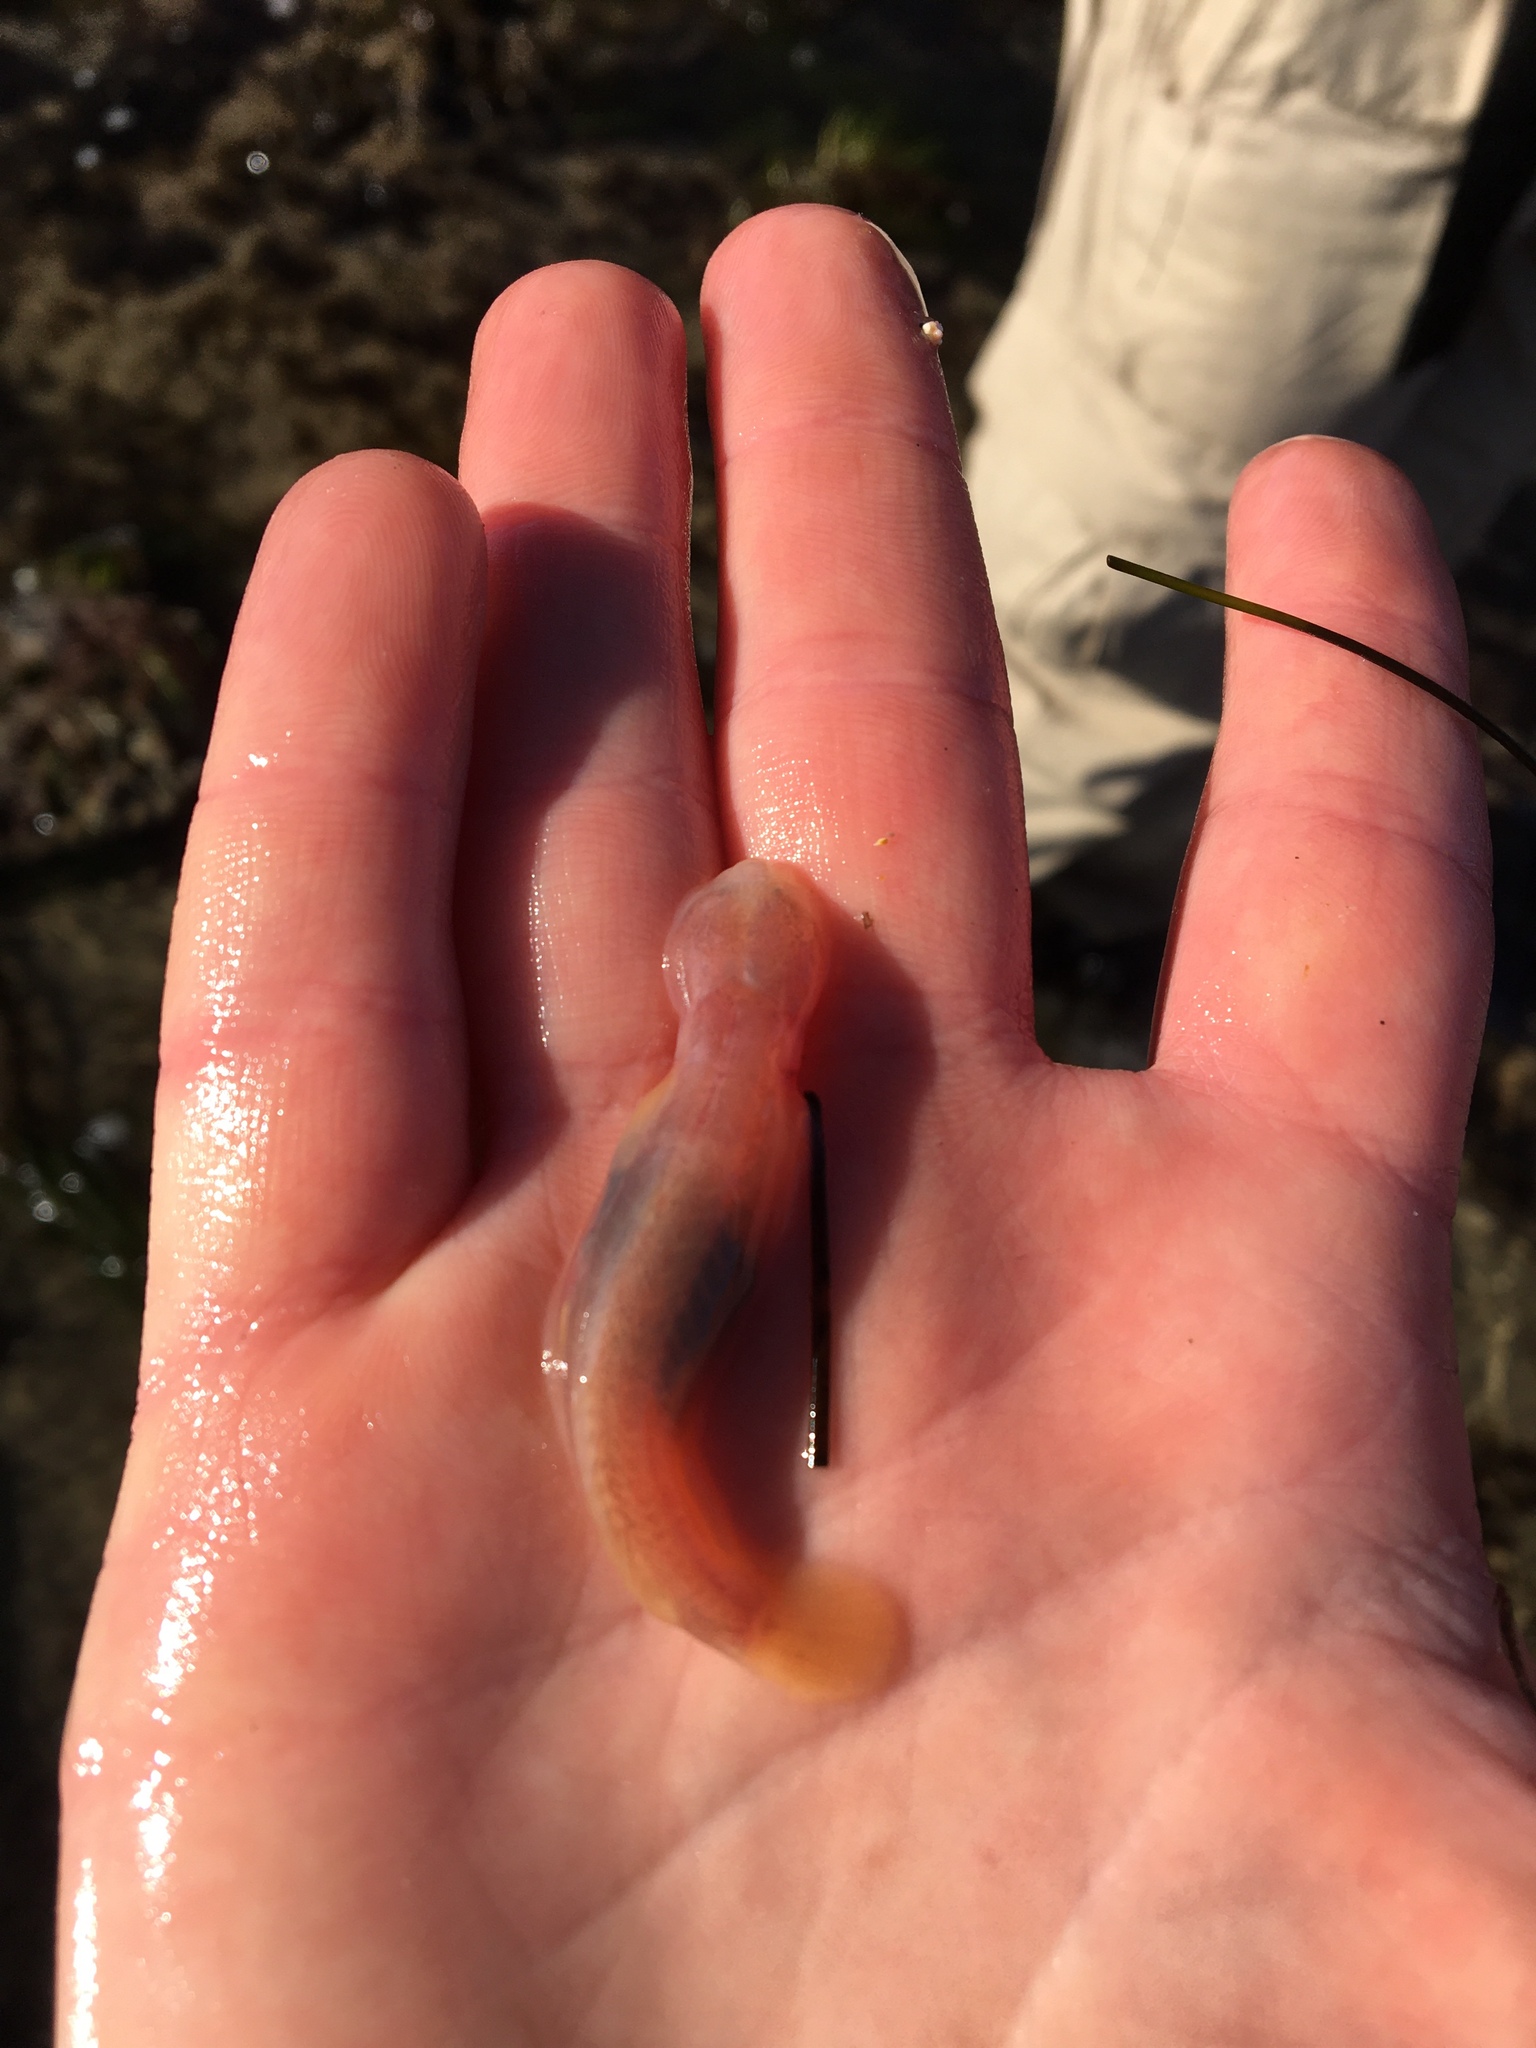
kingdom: Animalia
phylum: Chordata
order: Perciformes
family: Gobiidae
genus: Typhlogobius
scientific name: Typhlogobius californiensis
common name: Blind goby
